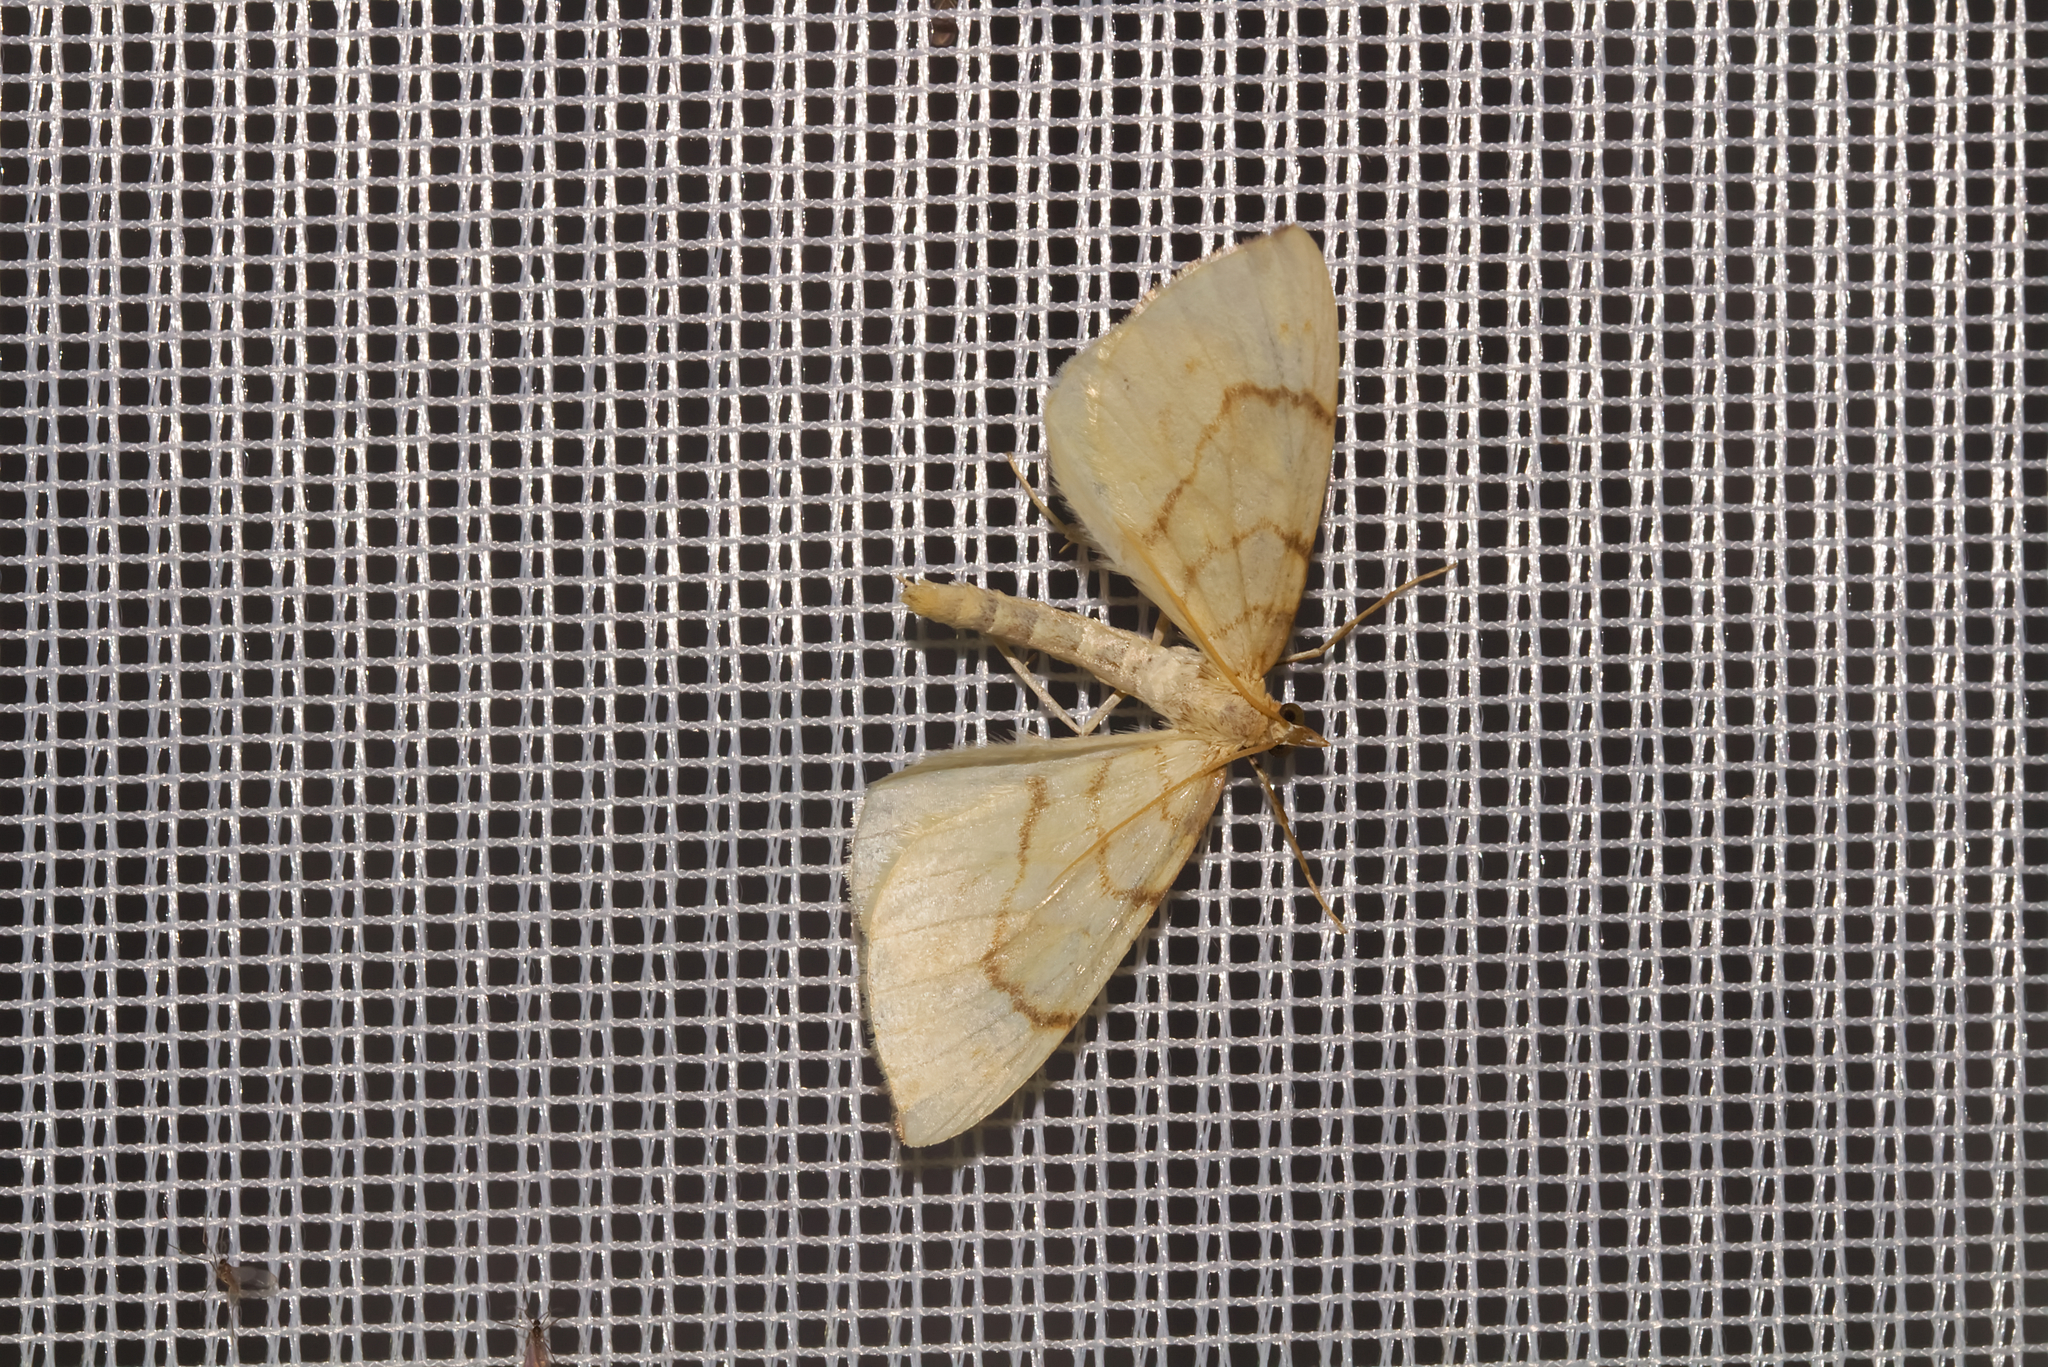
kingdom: Animalia
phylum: Arthropoda
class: Insecta
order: Lepidoptera
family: Geometridae
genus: Eulithis
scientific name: Eulithis pyraliata
